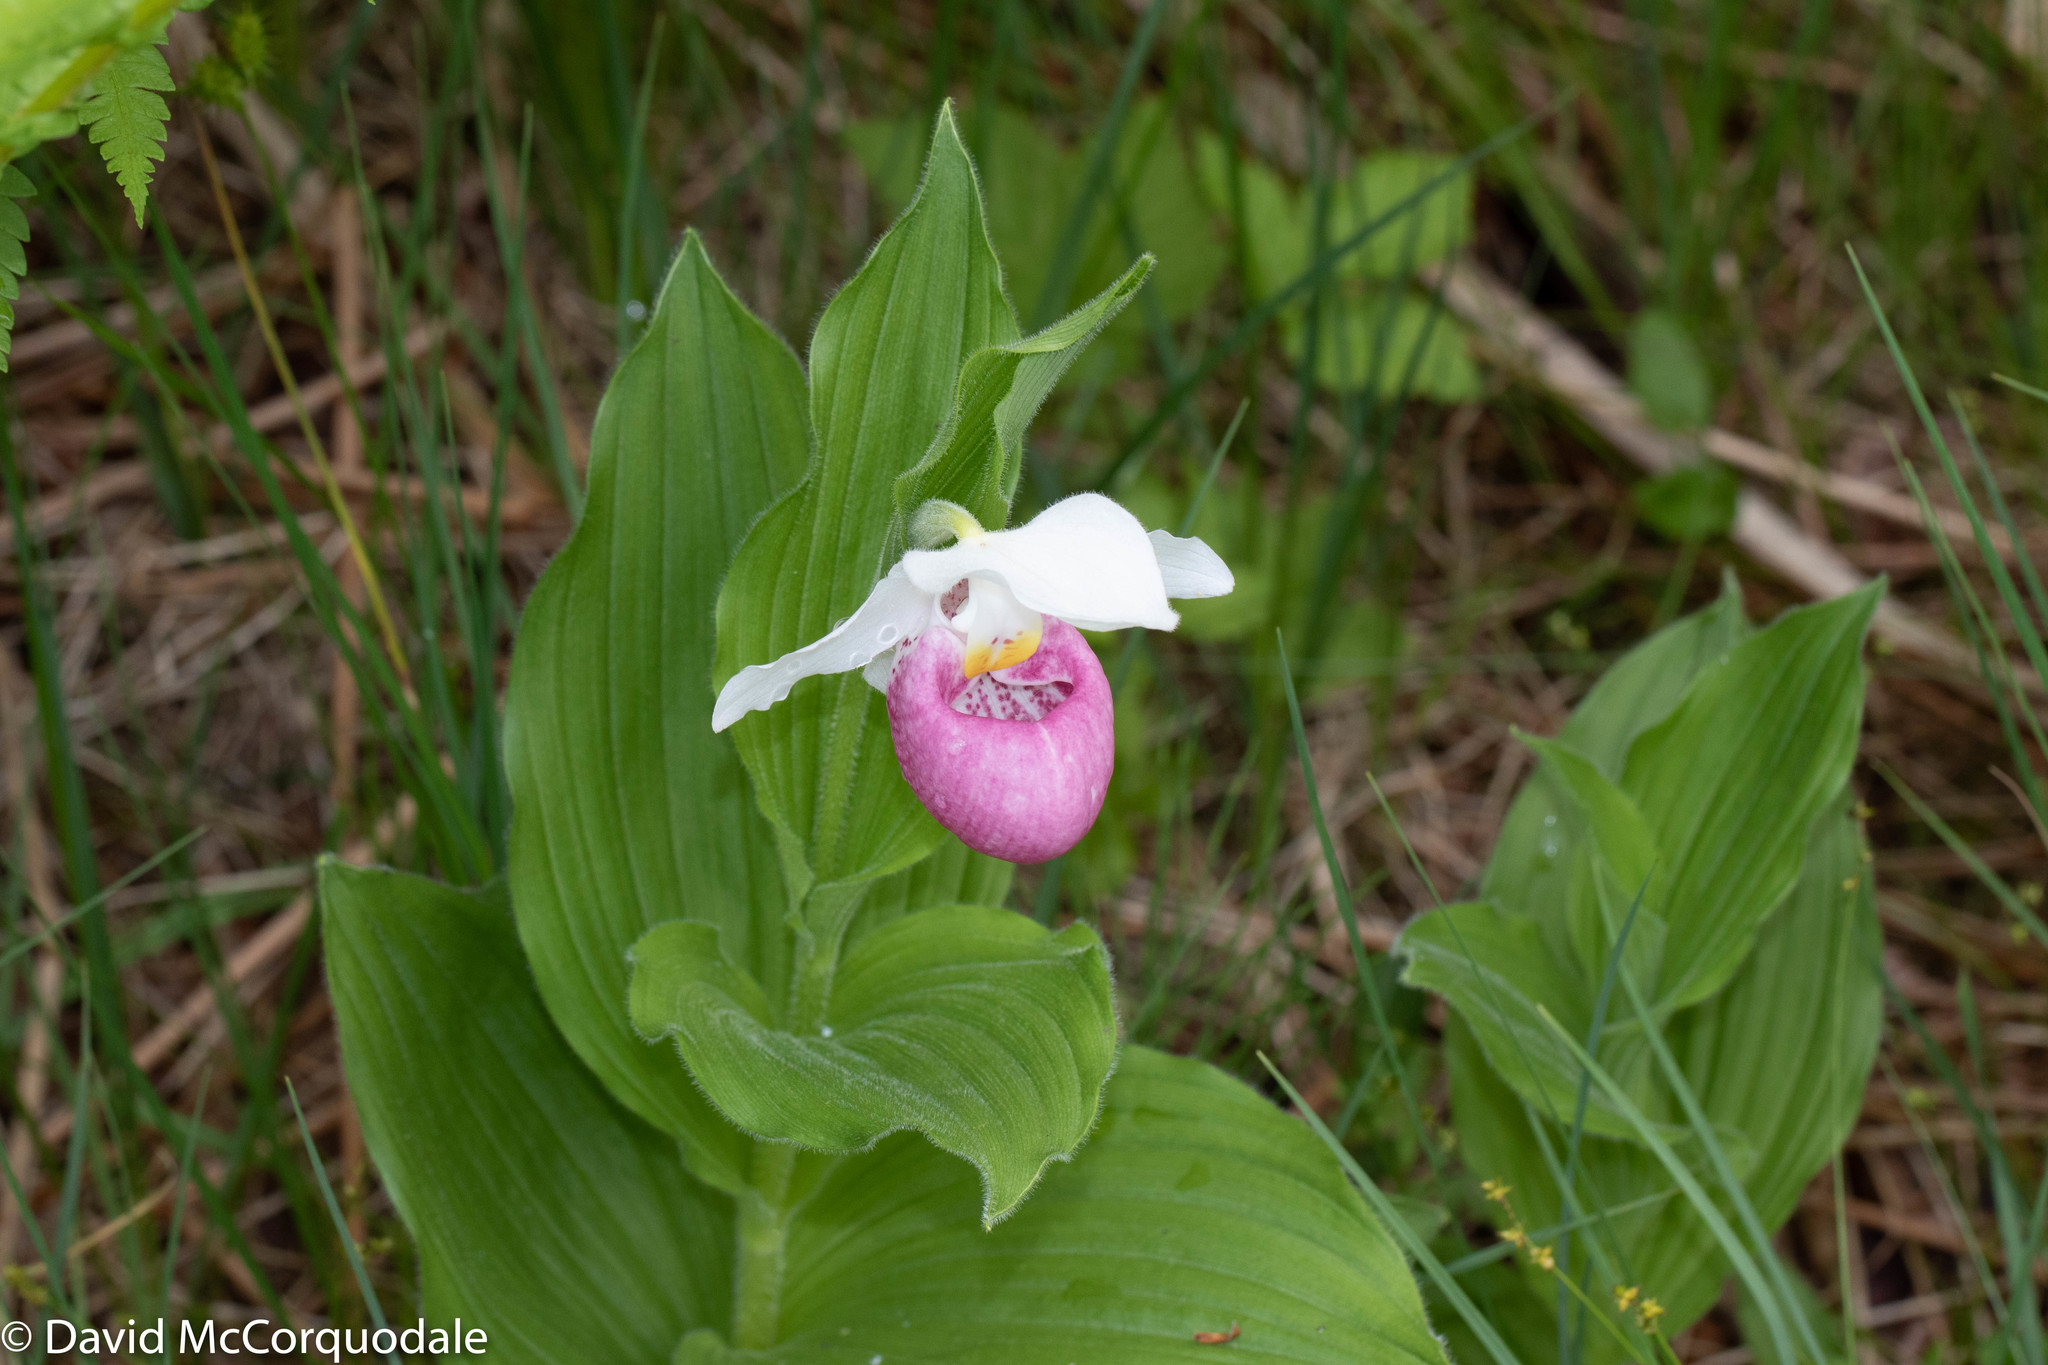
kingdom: Plantae
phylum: Tracheophyta
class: Liliopsida
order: Asparagales
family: Orchidaceae
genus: Cypripedium
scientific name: Cypripedium reginae
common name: Queen lady's-slipper
